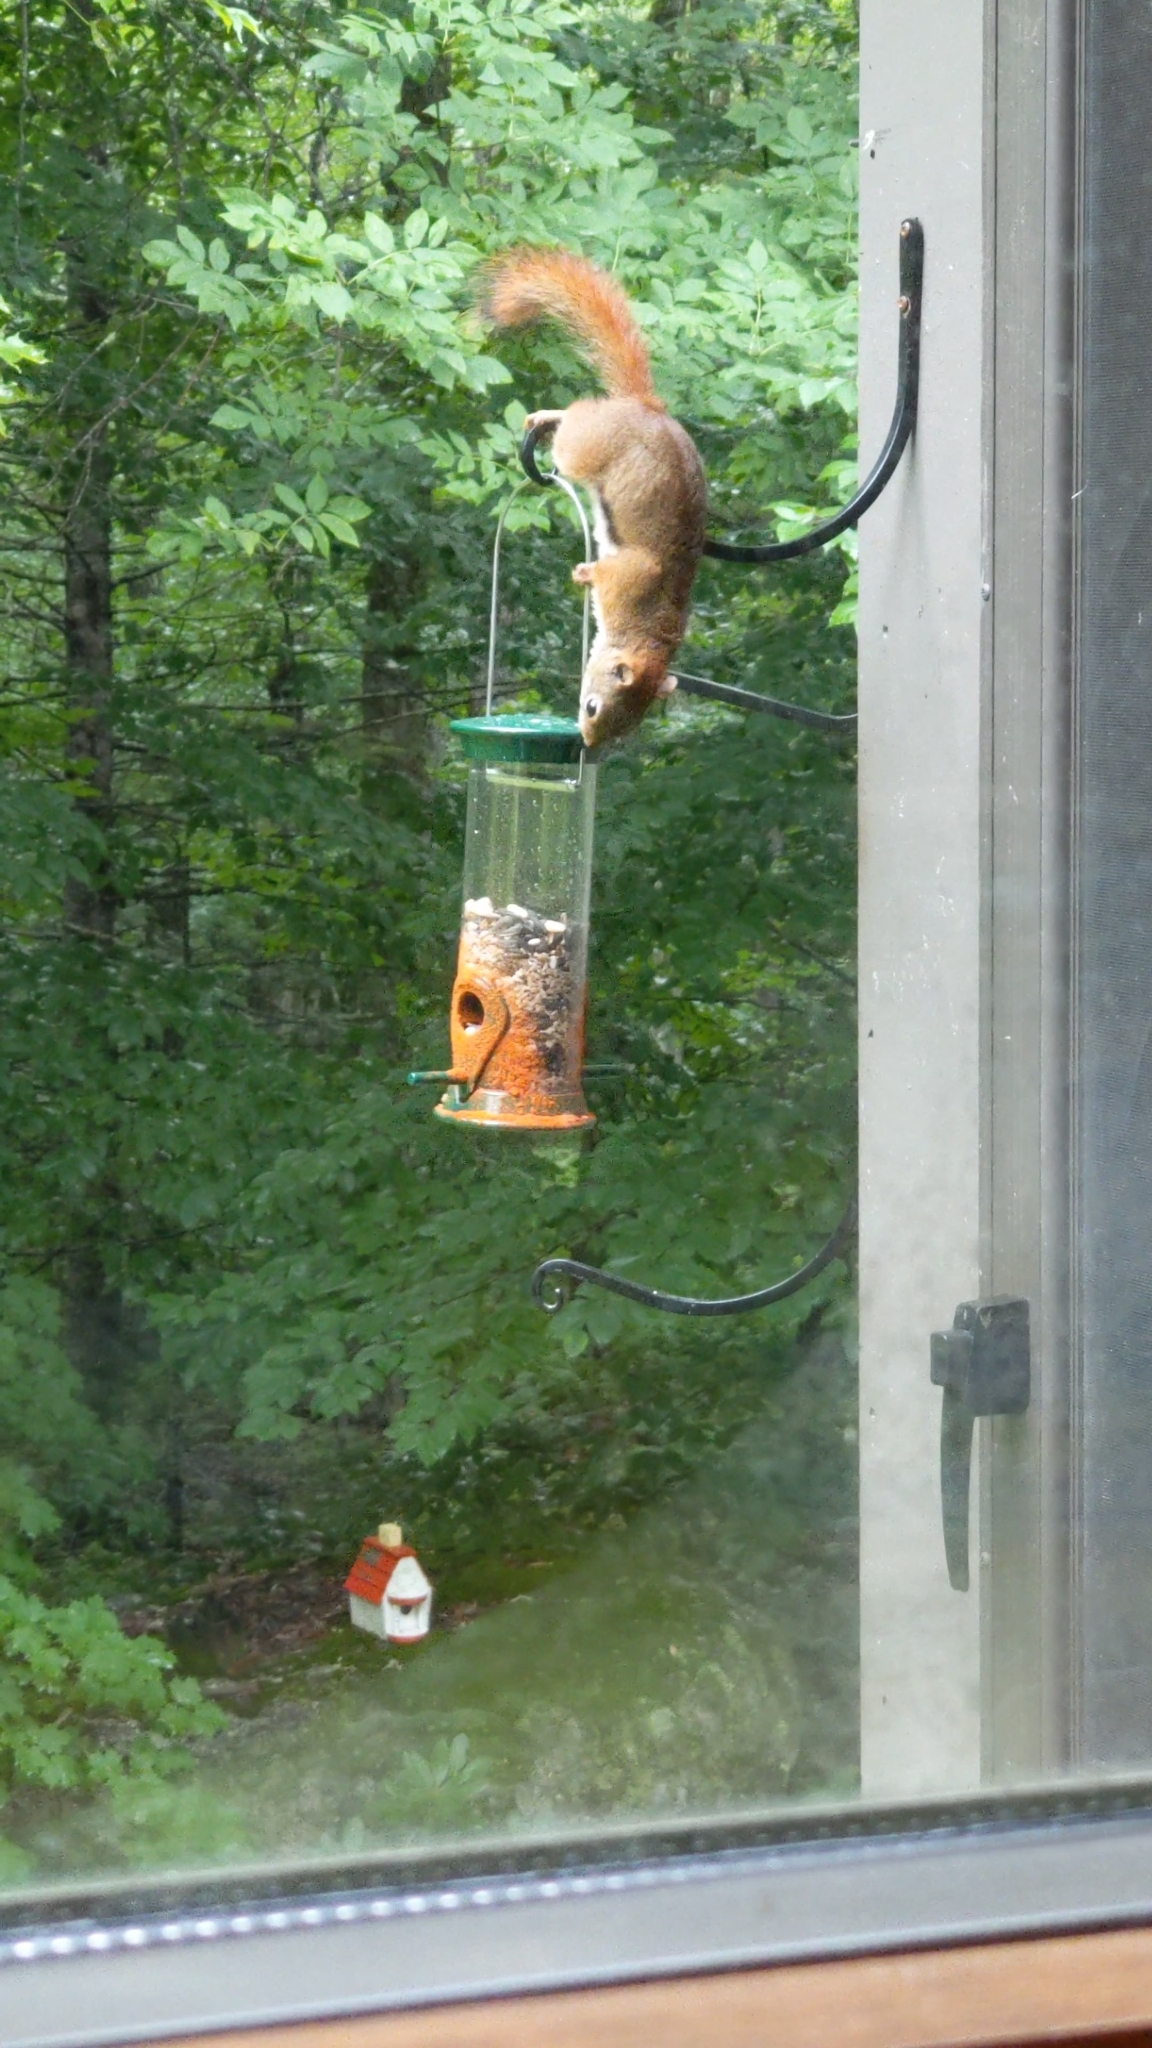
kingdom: Animalia
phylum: Chordata
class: Mammalia
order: Rodentia
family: Sciuridae
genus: Tamiasciurus
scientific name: Tamiasciurus hudsonicus
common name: Red squirrel
